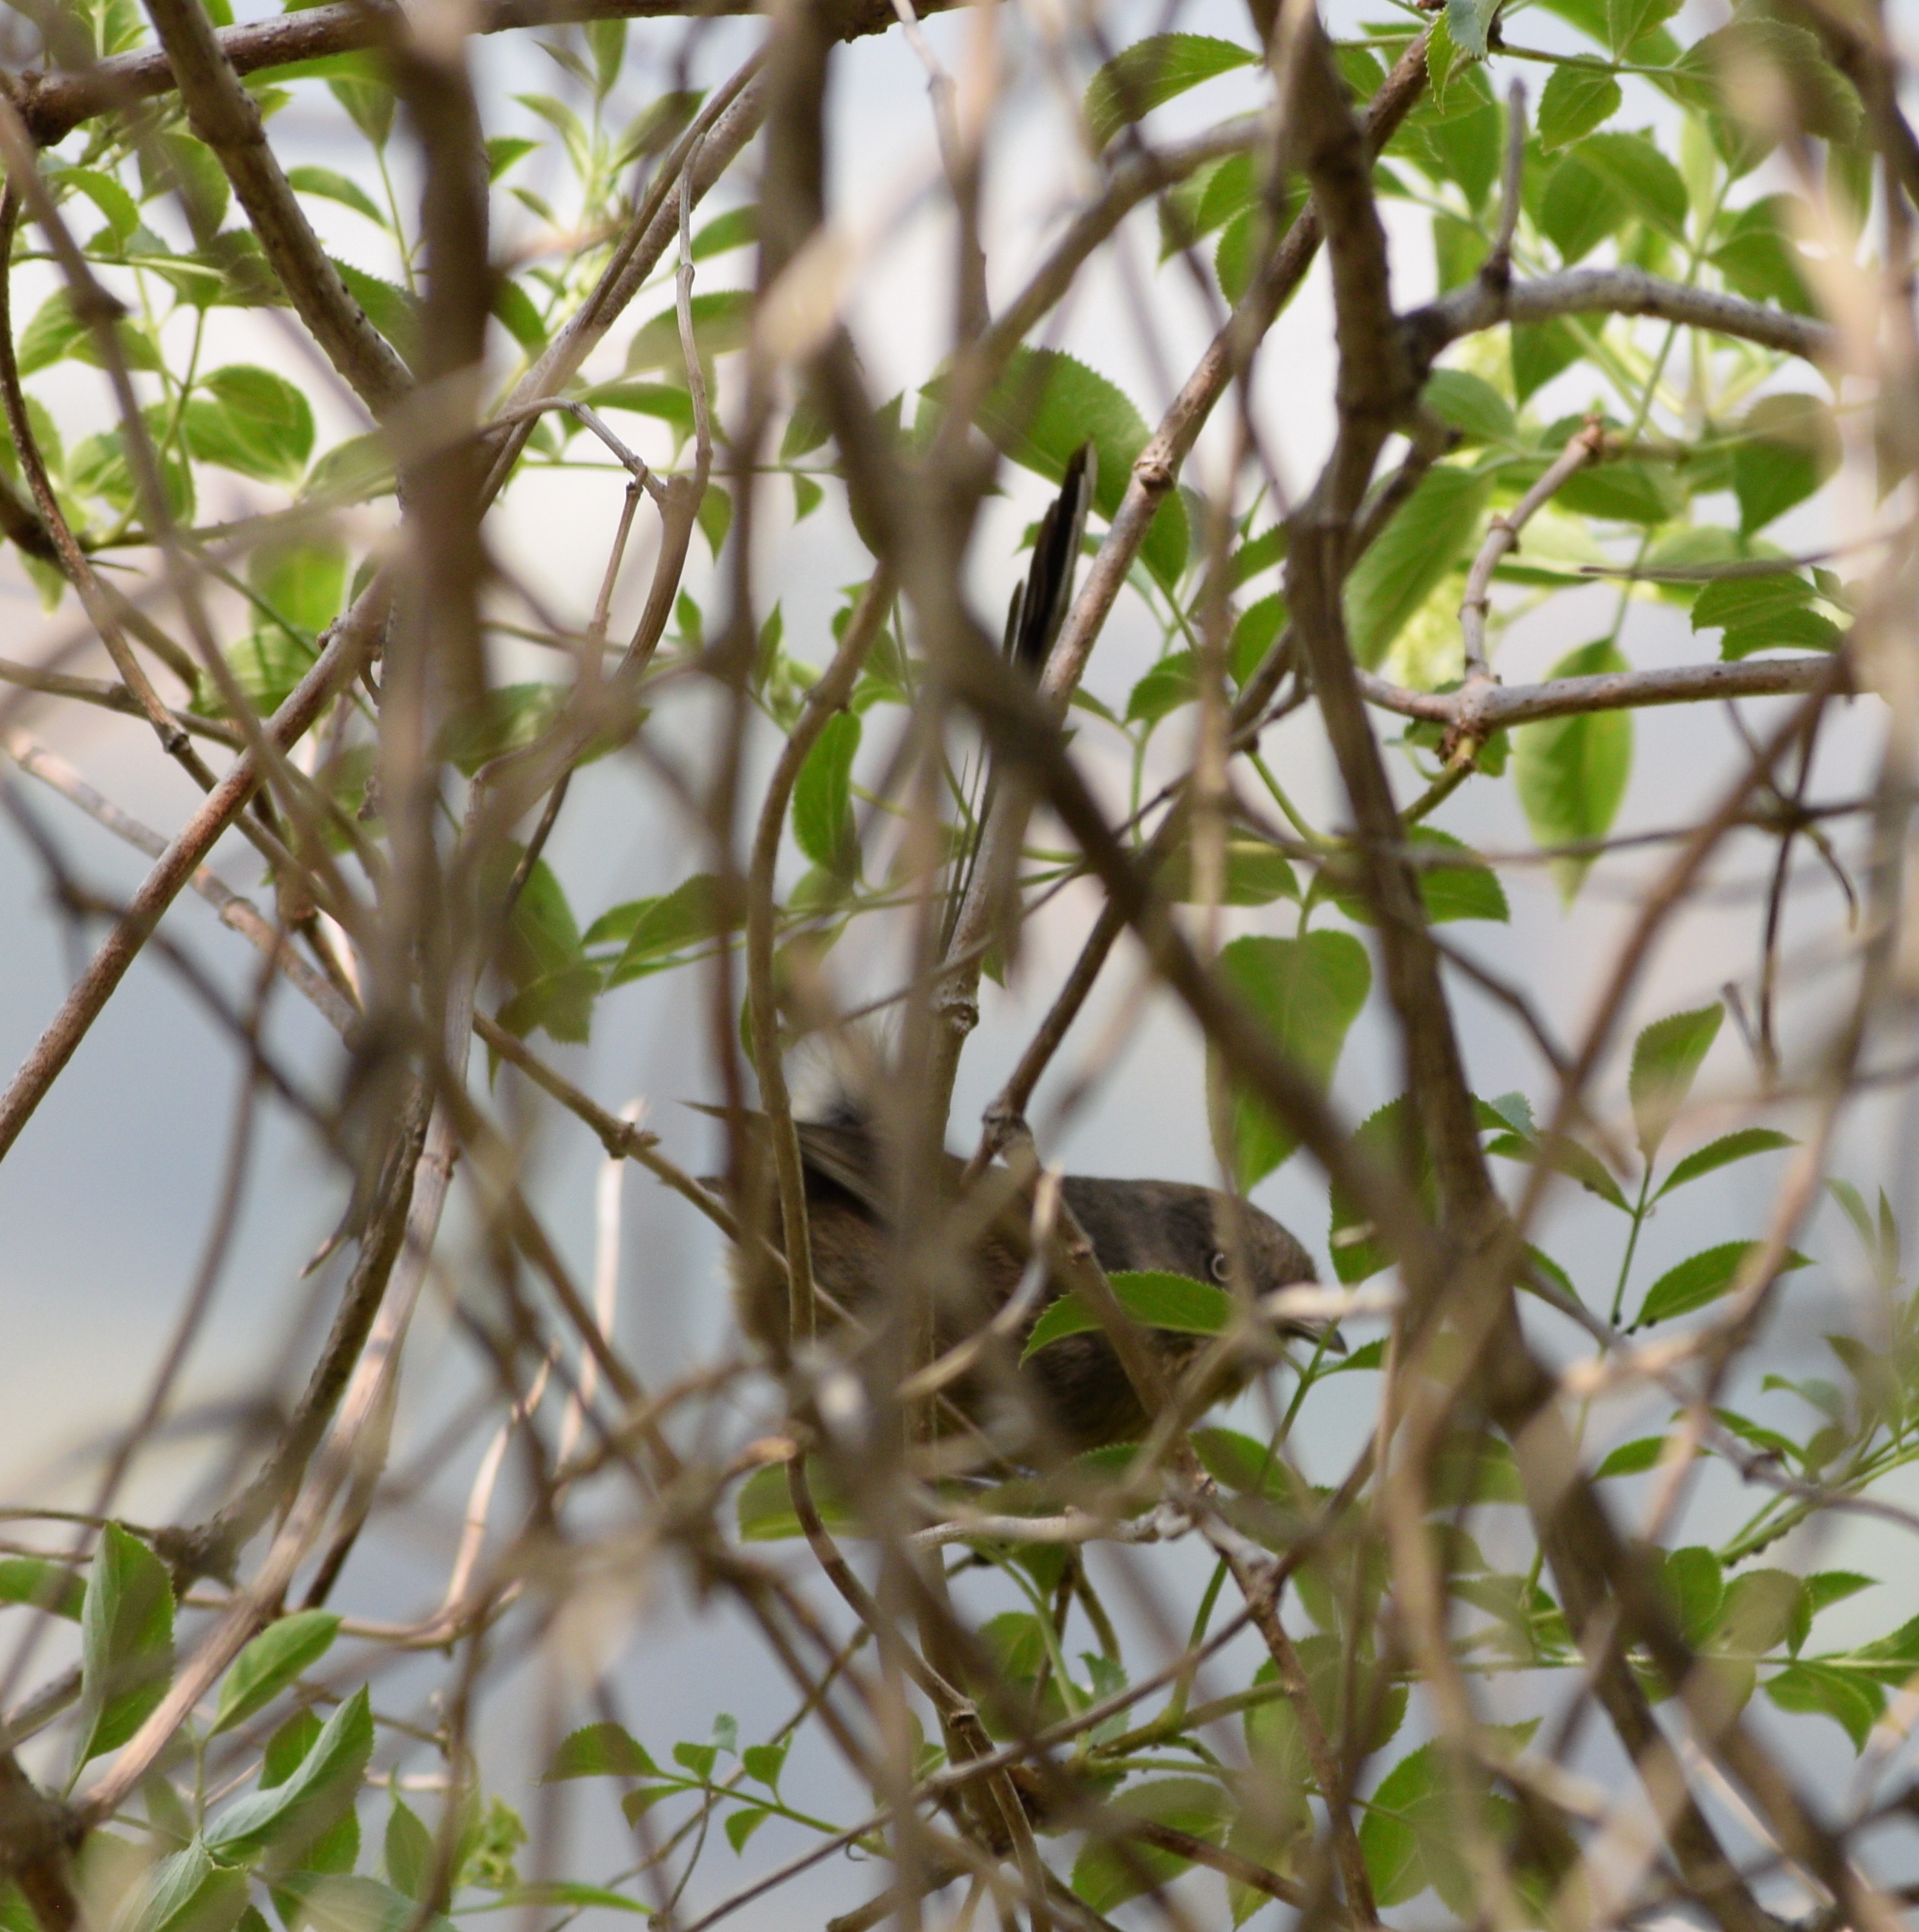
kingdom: Animalia
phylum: Chordata
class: Aves
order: Passeriformes
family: Sylviidae
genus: Chamaea
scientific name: Chamaea fasciata
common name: Wrentit
